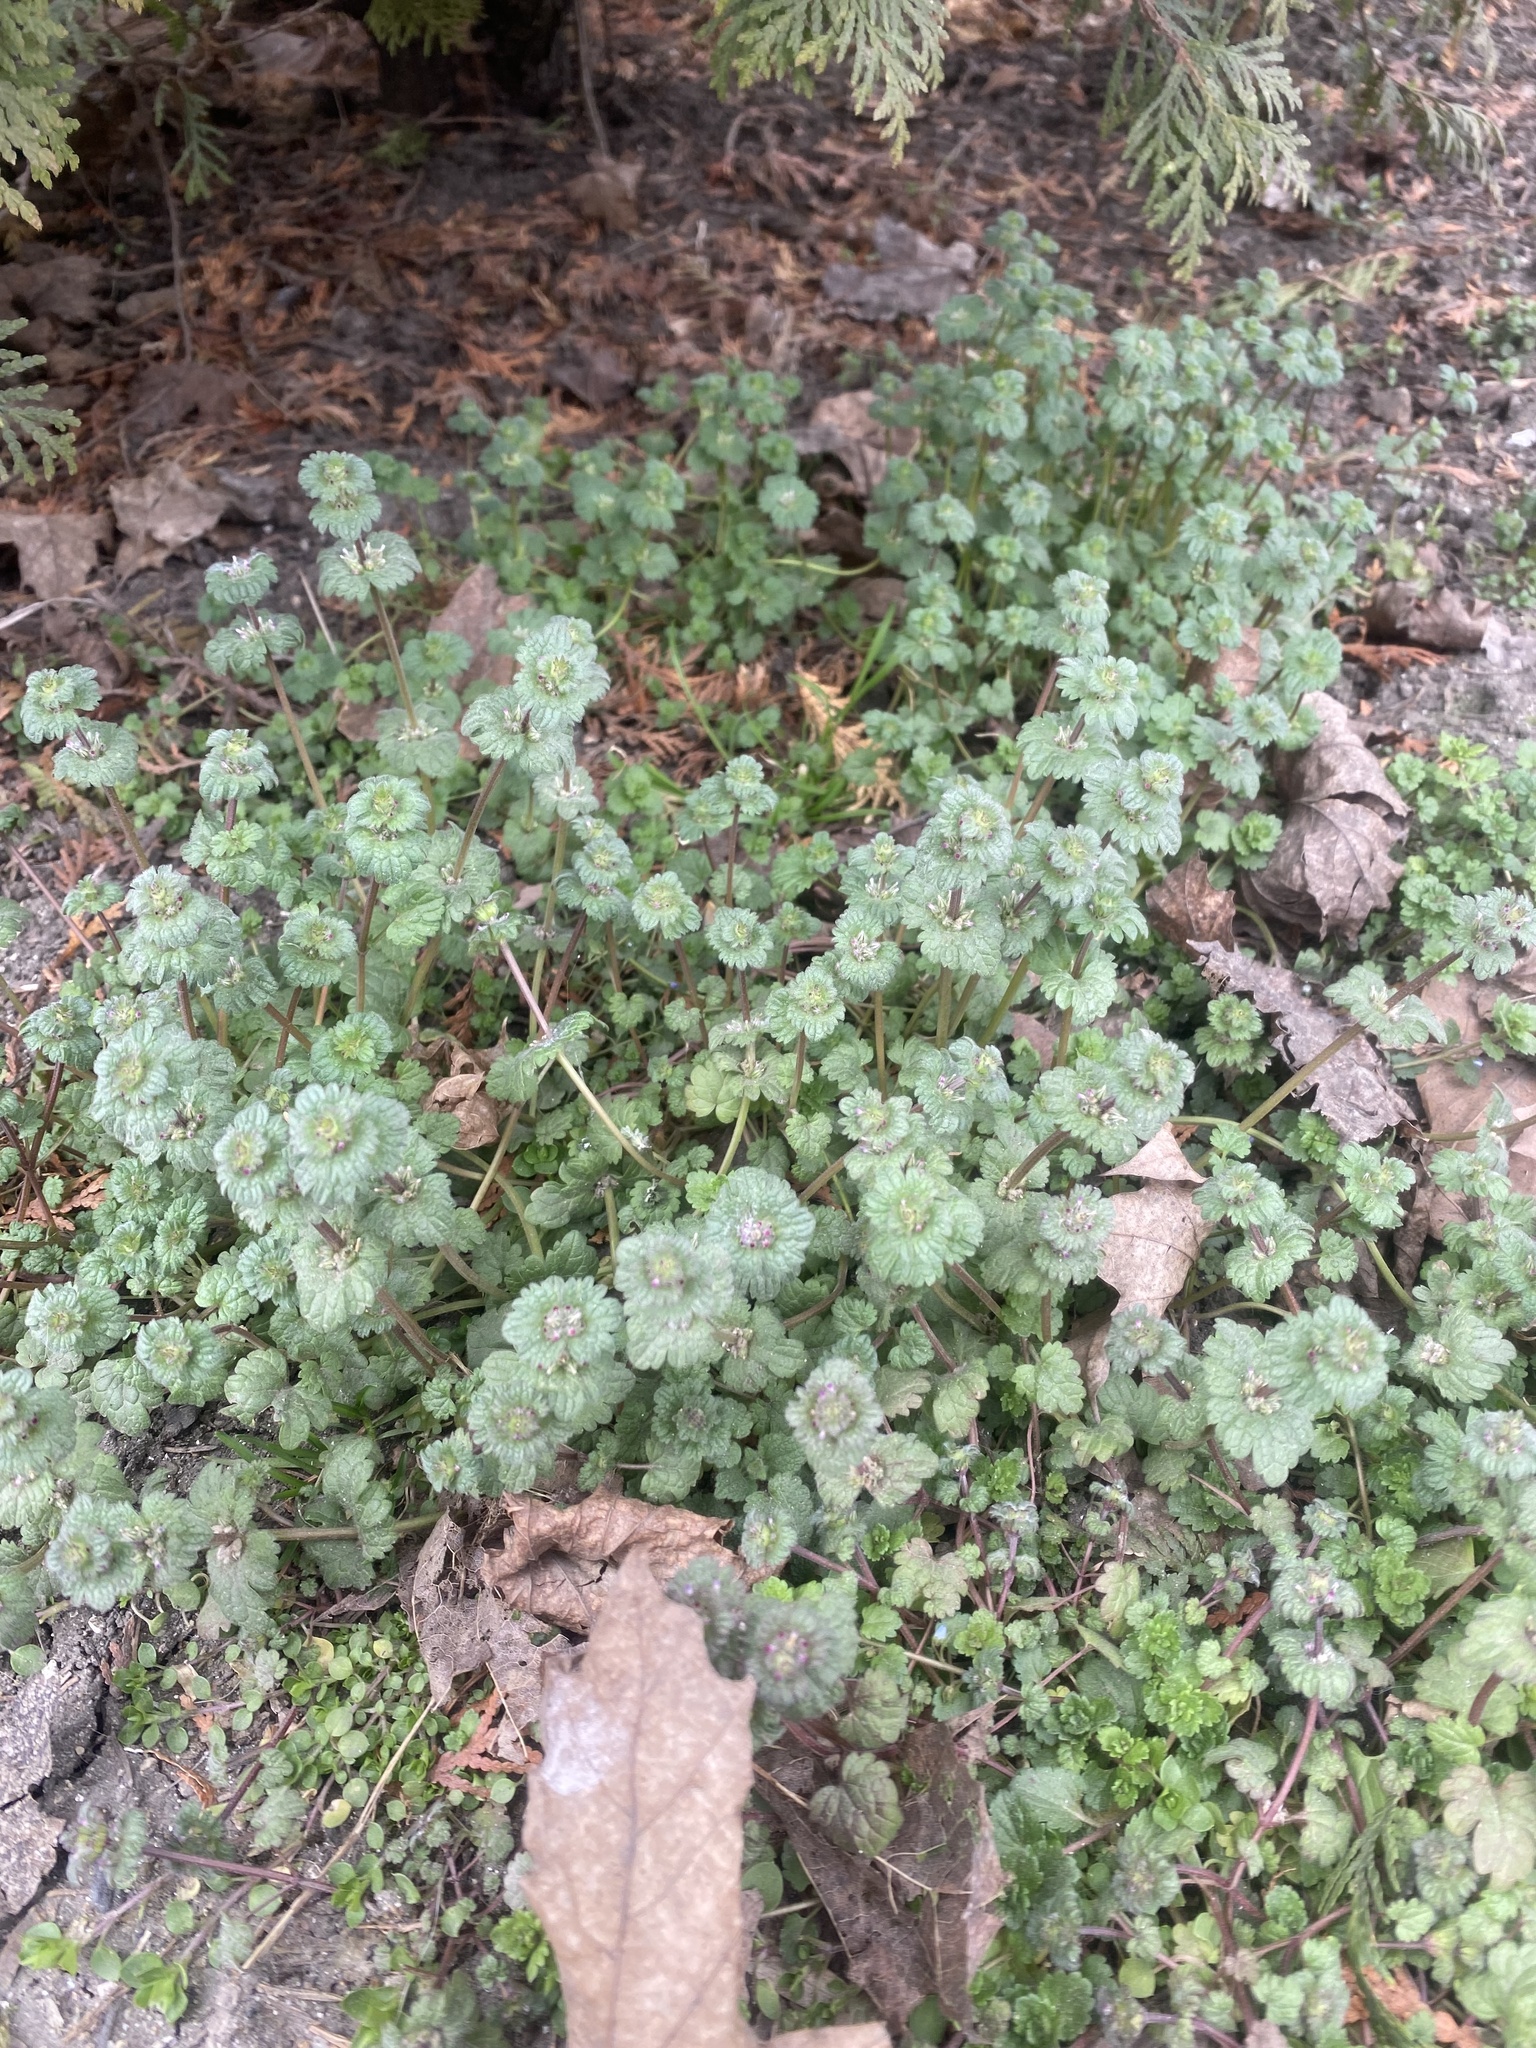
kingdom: Plantae
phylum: Tracheophyta
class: Magnoliopsida
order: Lamiales
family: Lamiaceae
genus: Lamium
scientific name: Lamium amplexicaule
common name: Henbit dead-nettle
